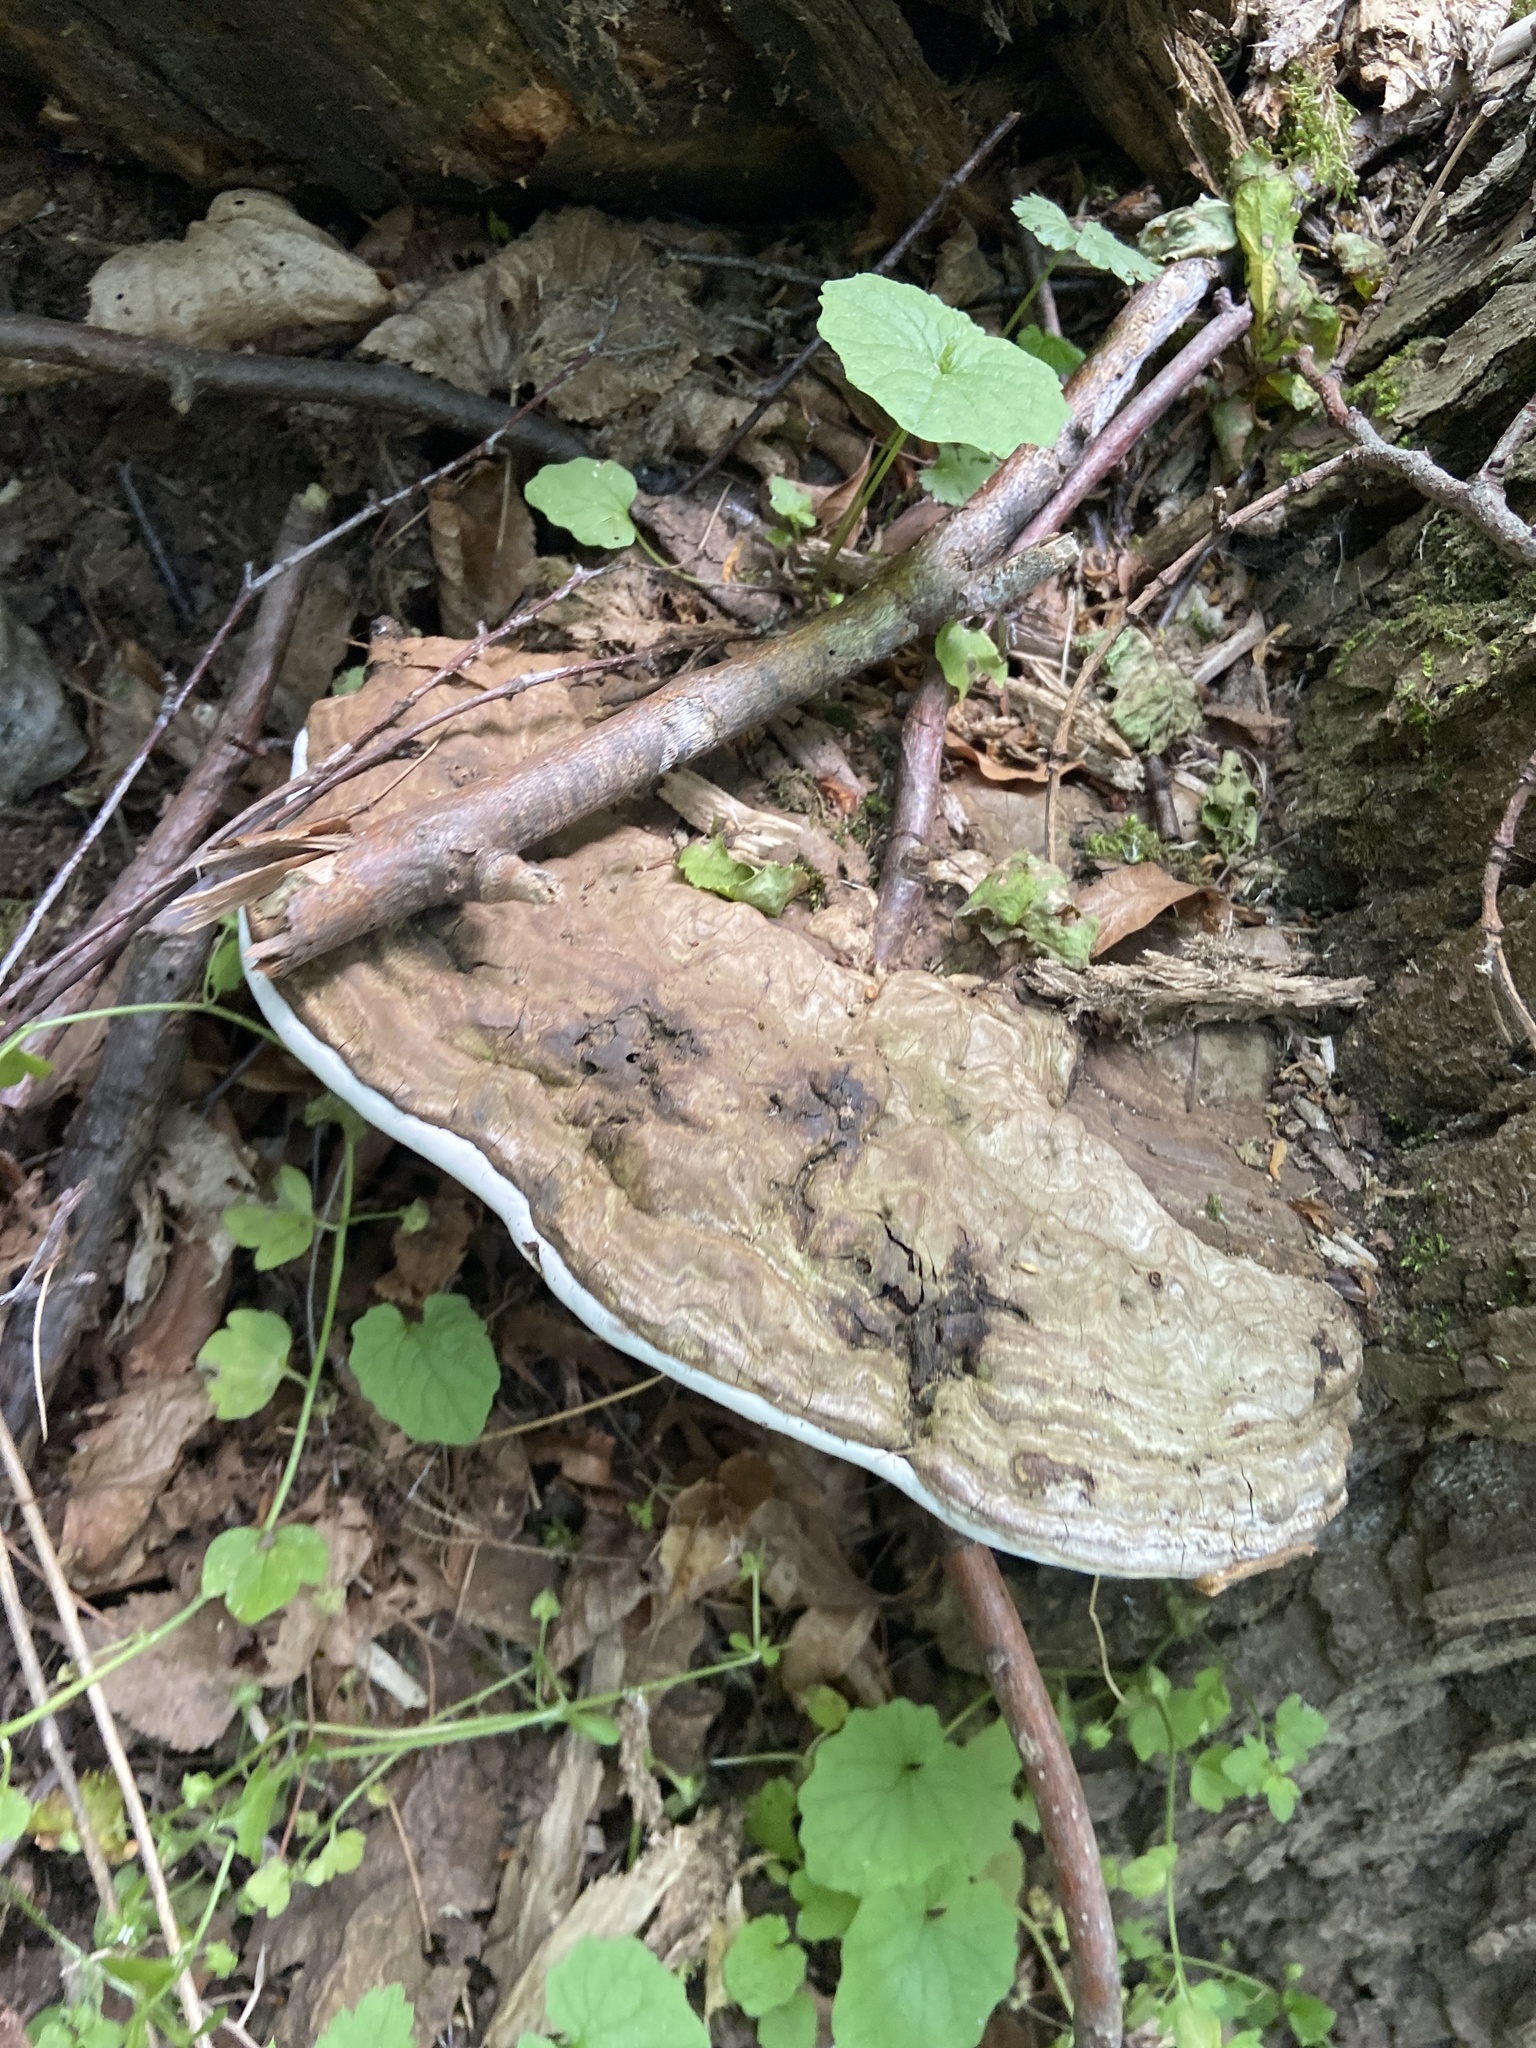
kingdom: Fungi
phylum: Basidiomycota
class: Agaricomycetes
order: Polyporales
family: Polyporaceae
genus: Ganoderma
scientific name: Ganoderma applanatum
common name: Artist's bracket
